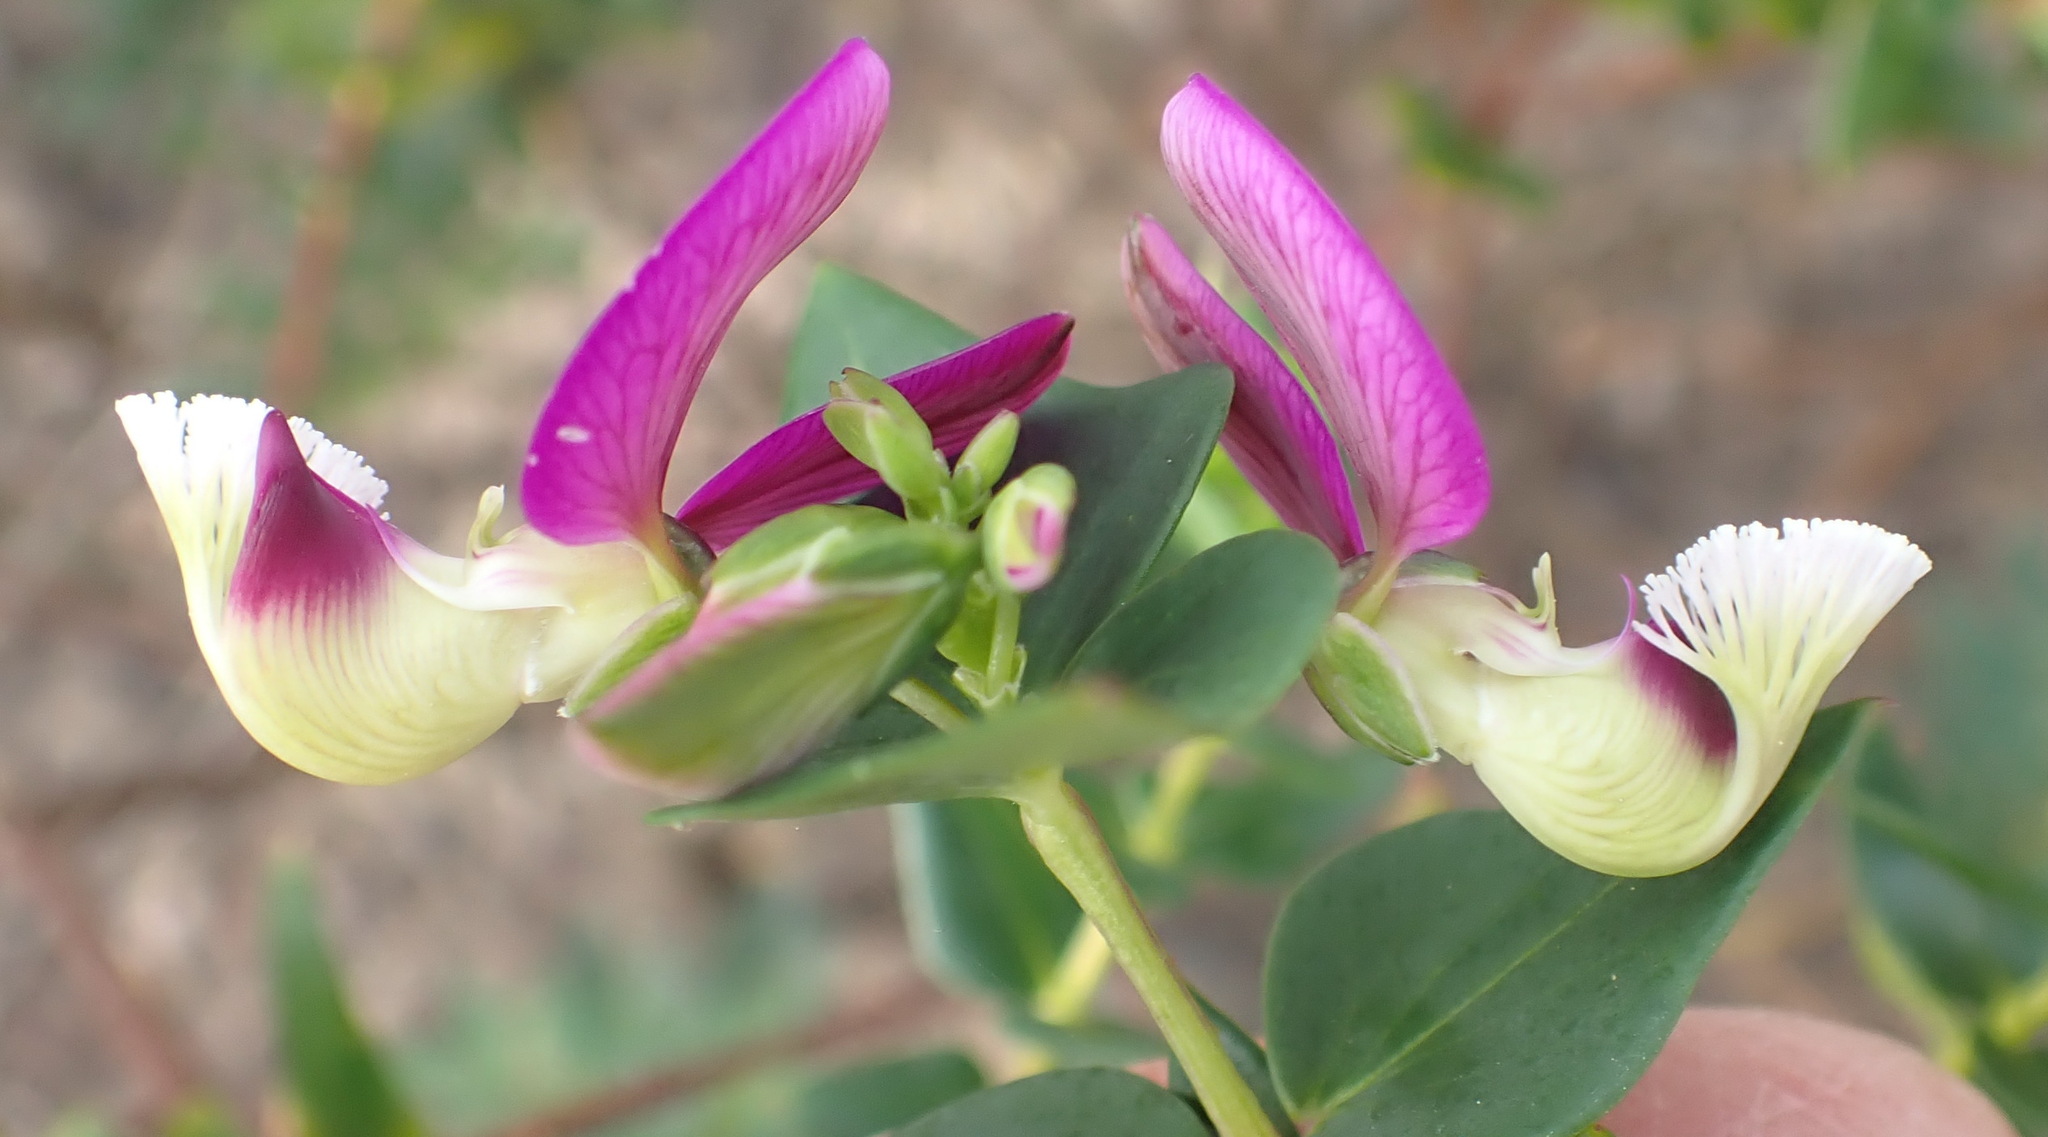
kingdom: Plantae
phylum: Tracheophyta
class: Magnoliopsida
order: Fabales
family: Polygalaceae
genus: Polygala
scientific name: Polygala fruticosa
